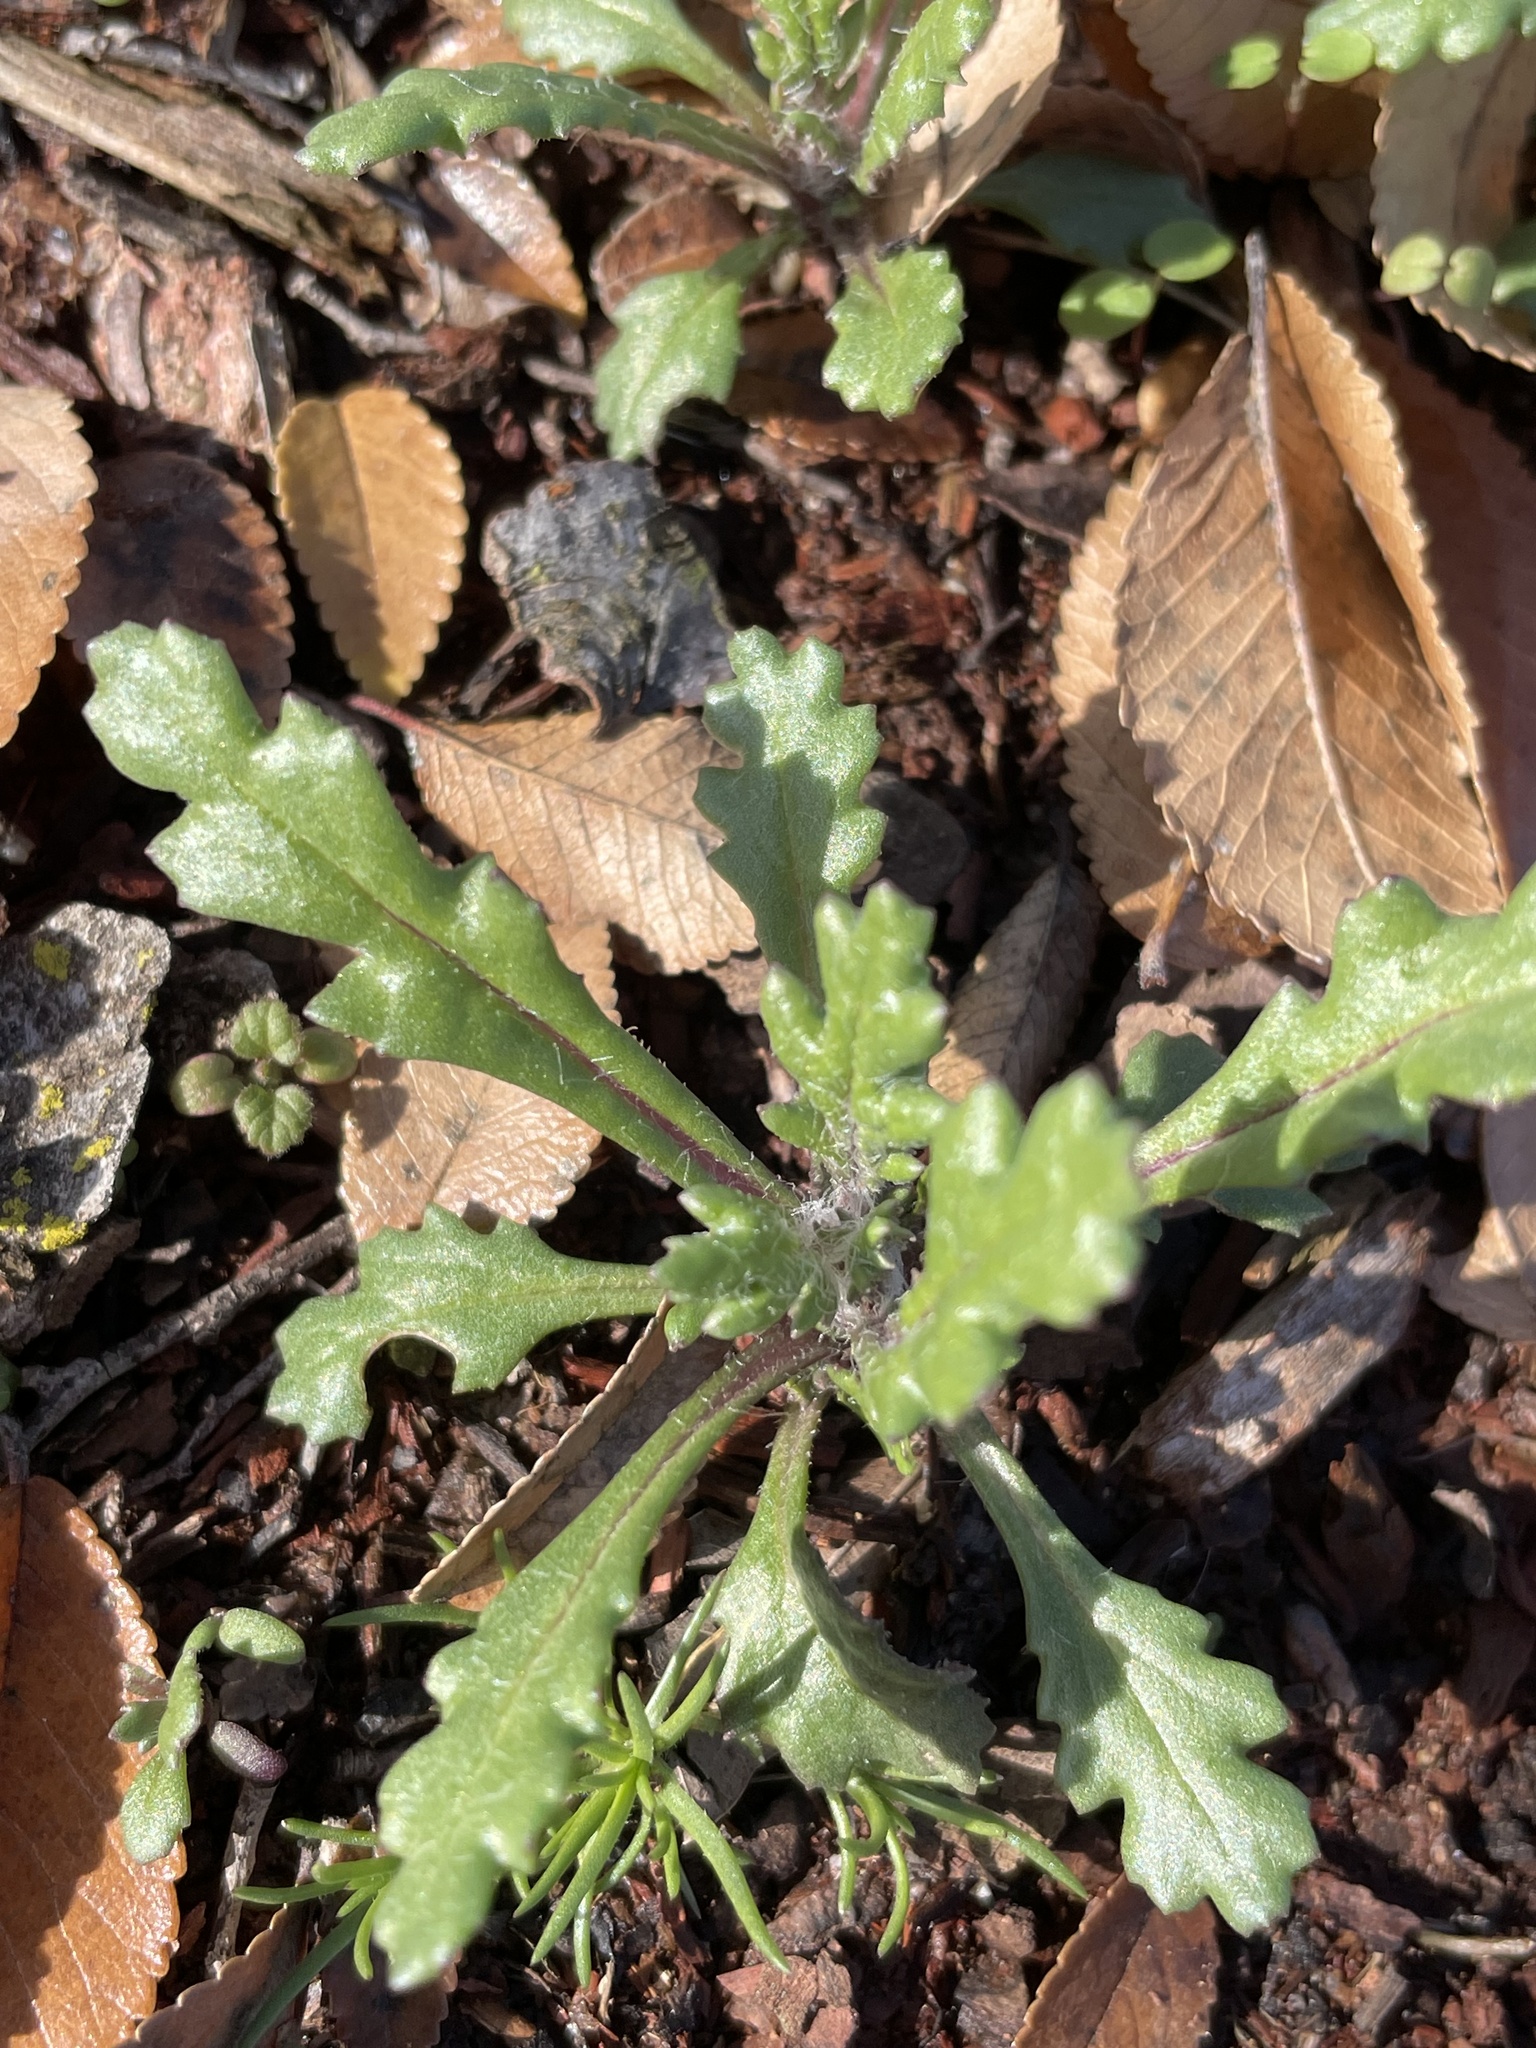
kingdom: Plantae
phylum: Tracheophyta
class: Magnoliopsida
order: Asterales
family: Asteraceae
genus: Senecio
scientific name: Senecio vulgaris
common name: Old-man-in-the-spring
